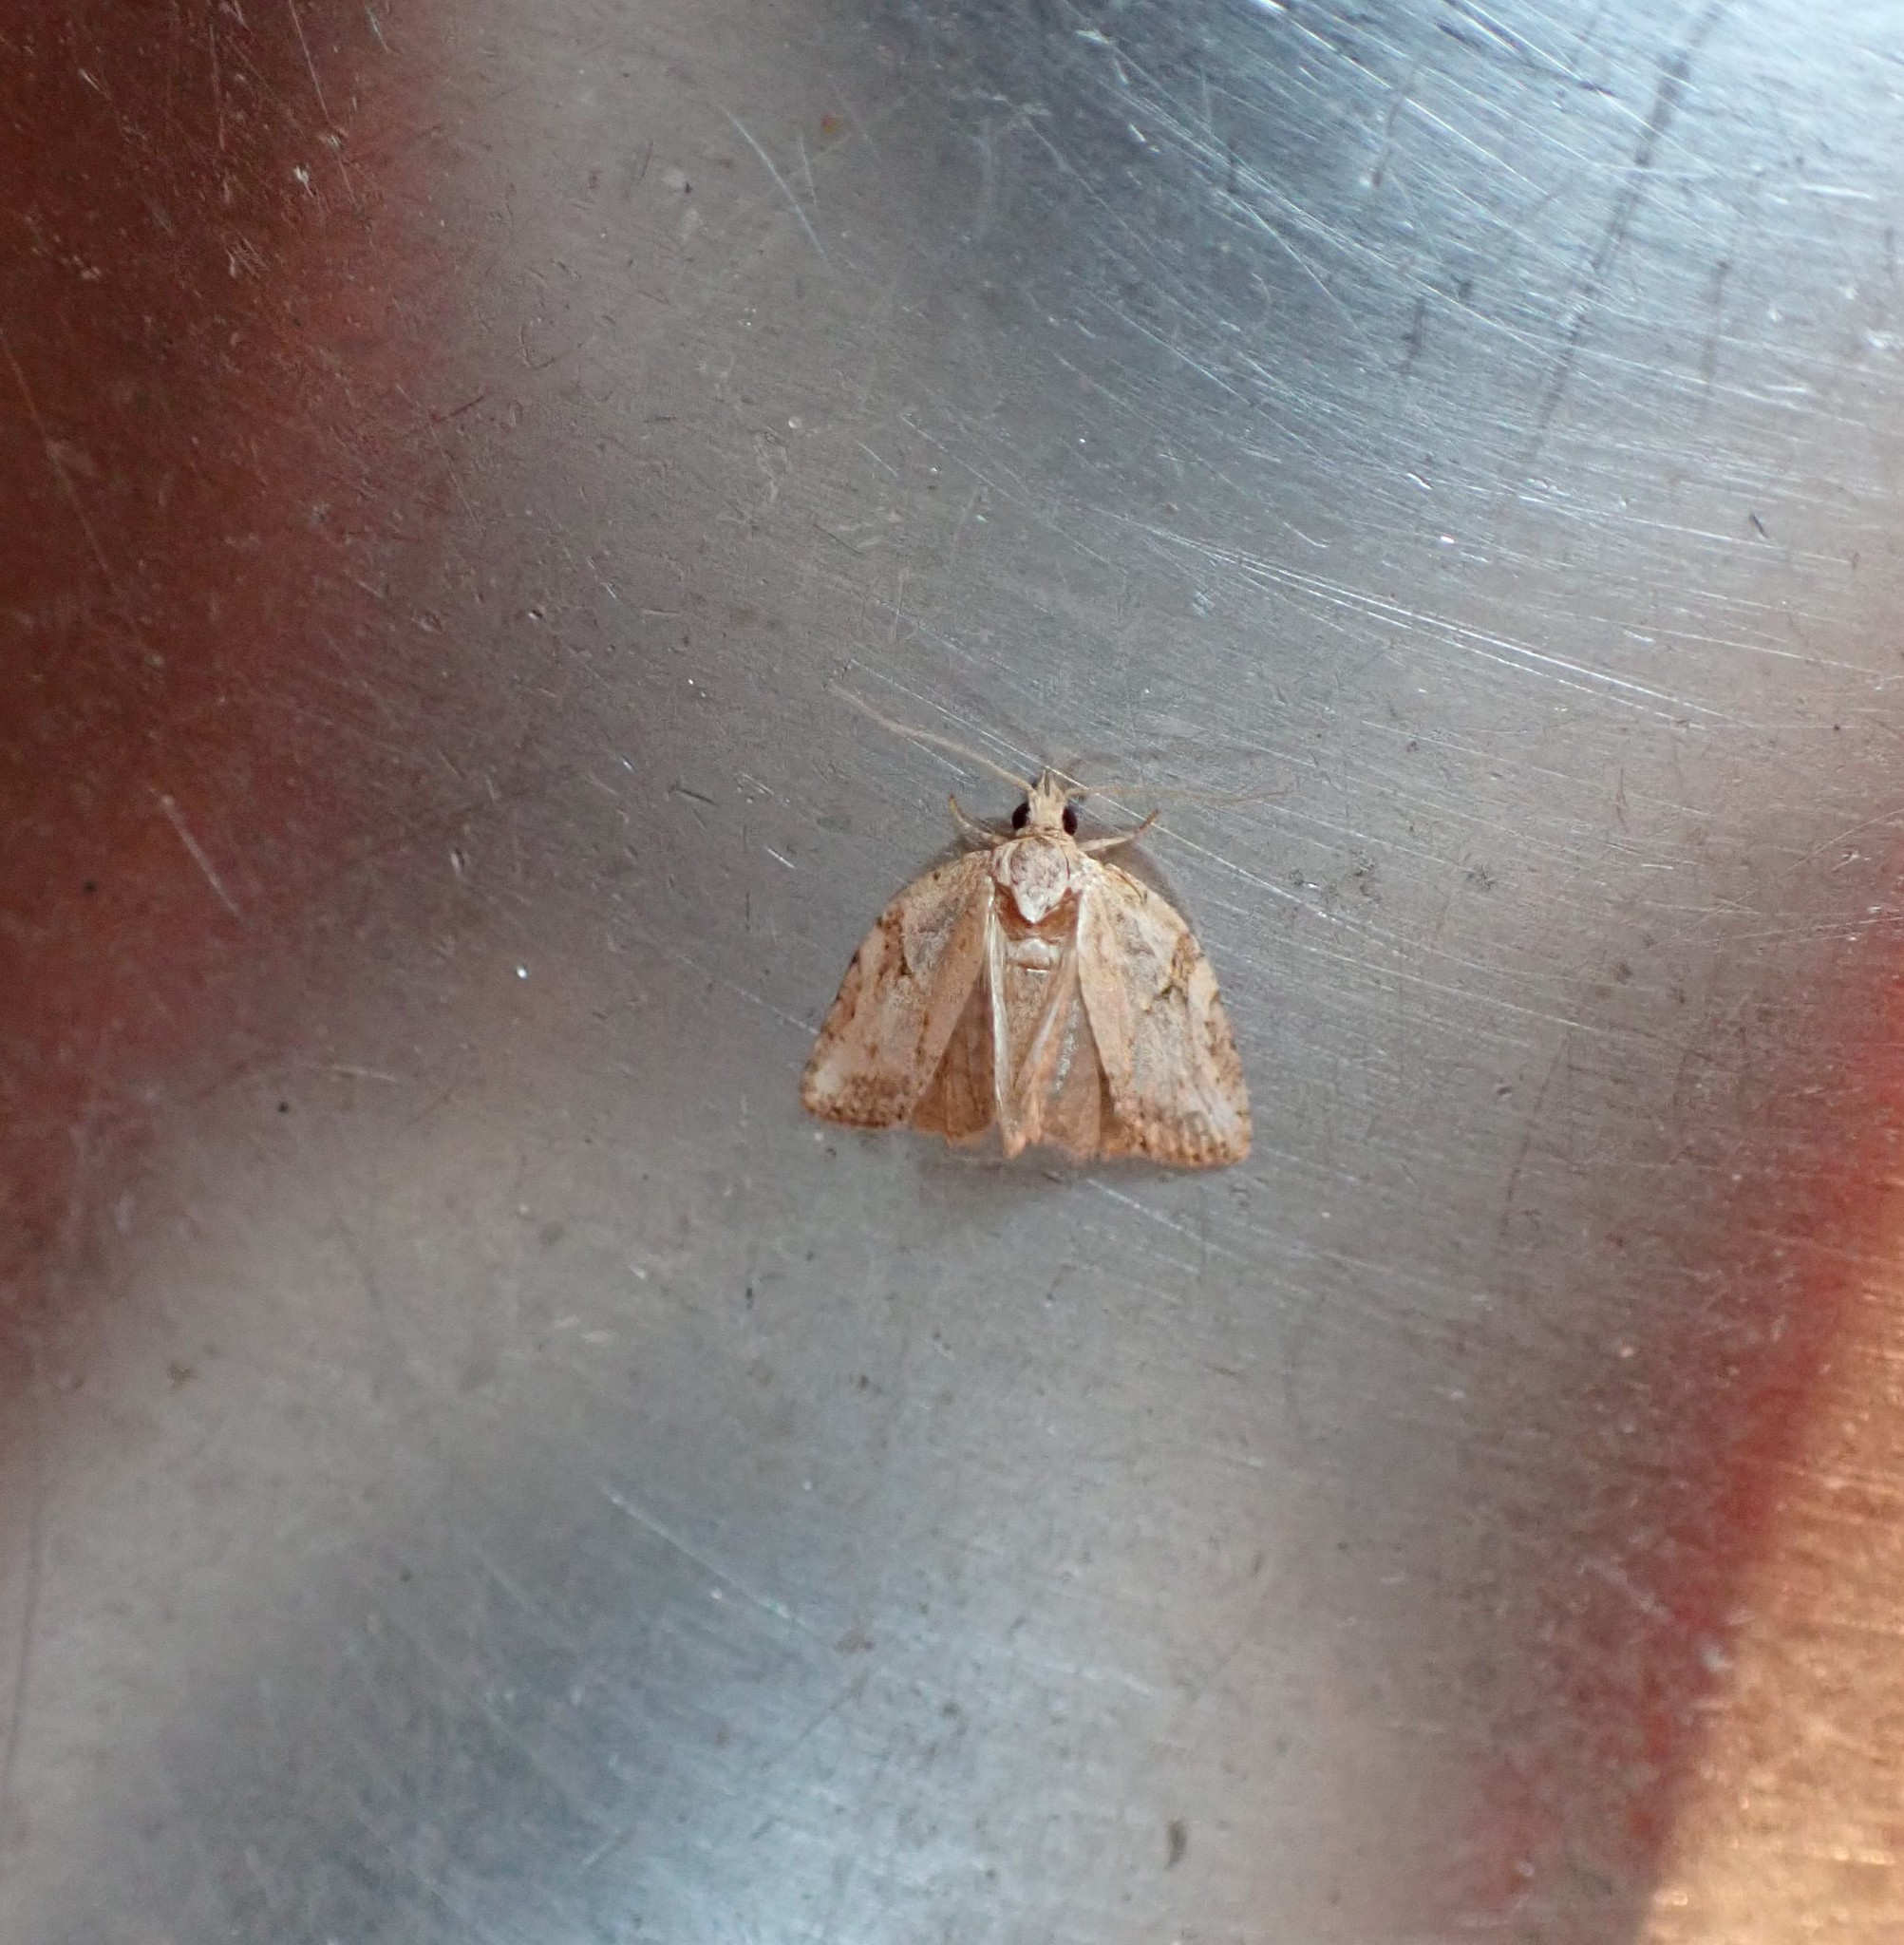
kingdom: Animalia
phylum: Arthropoda
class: Insecta
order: Lepidoptera
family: Tortricidae
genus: Epiphyas
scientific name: Epiphyas postvittana
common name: Light brown apple moth
